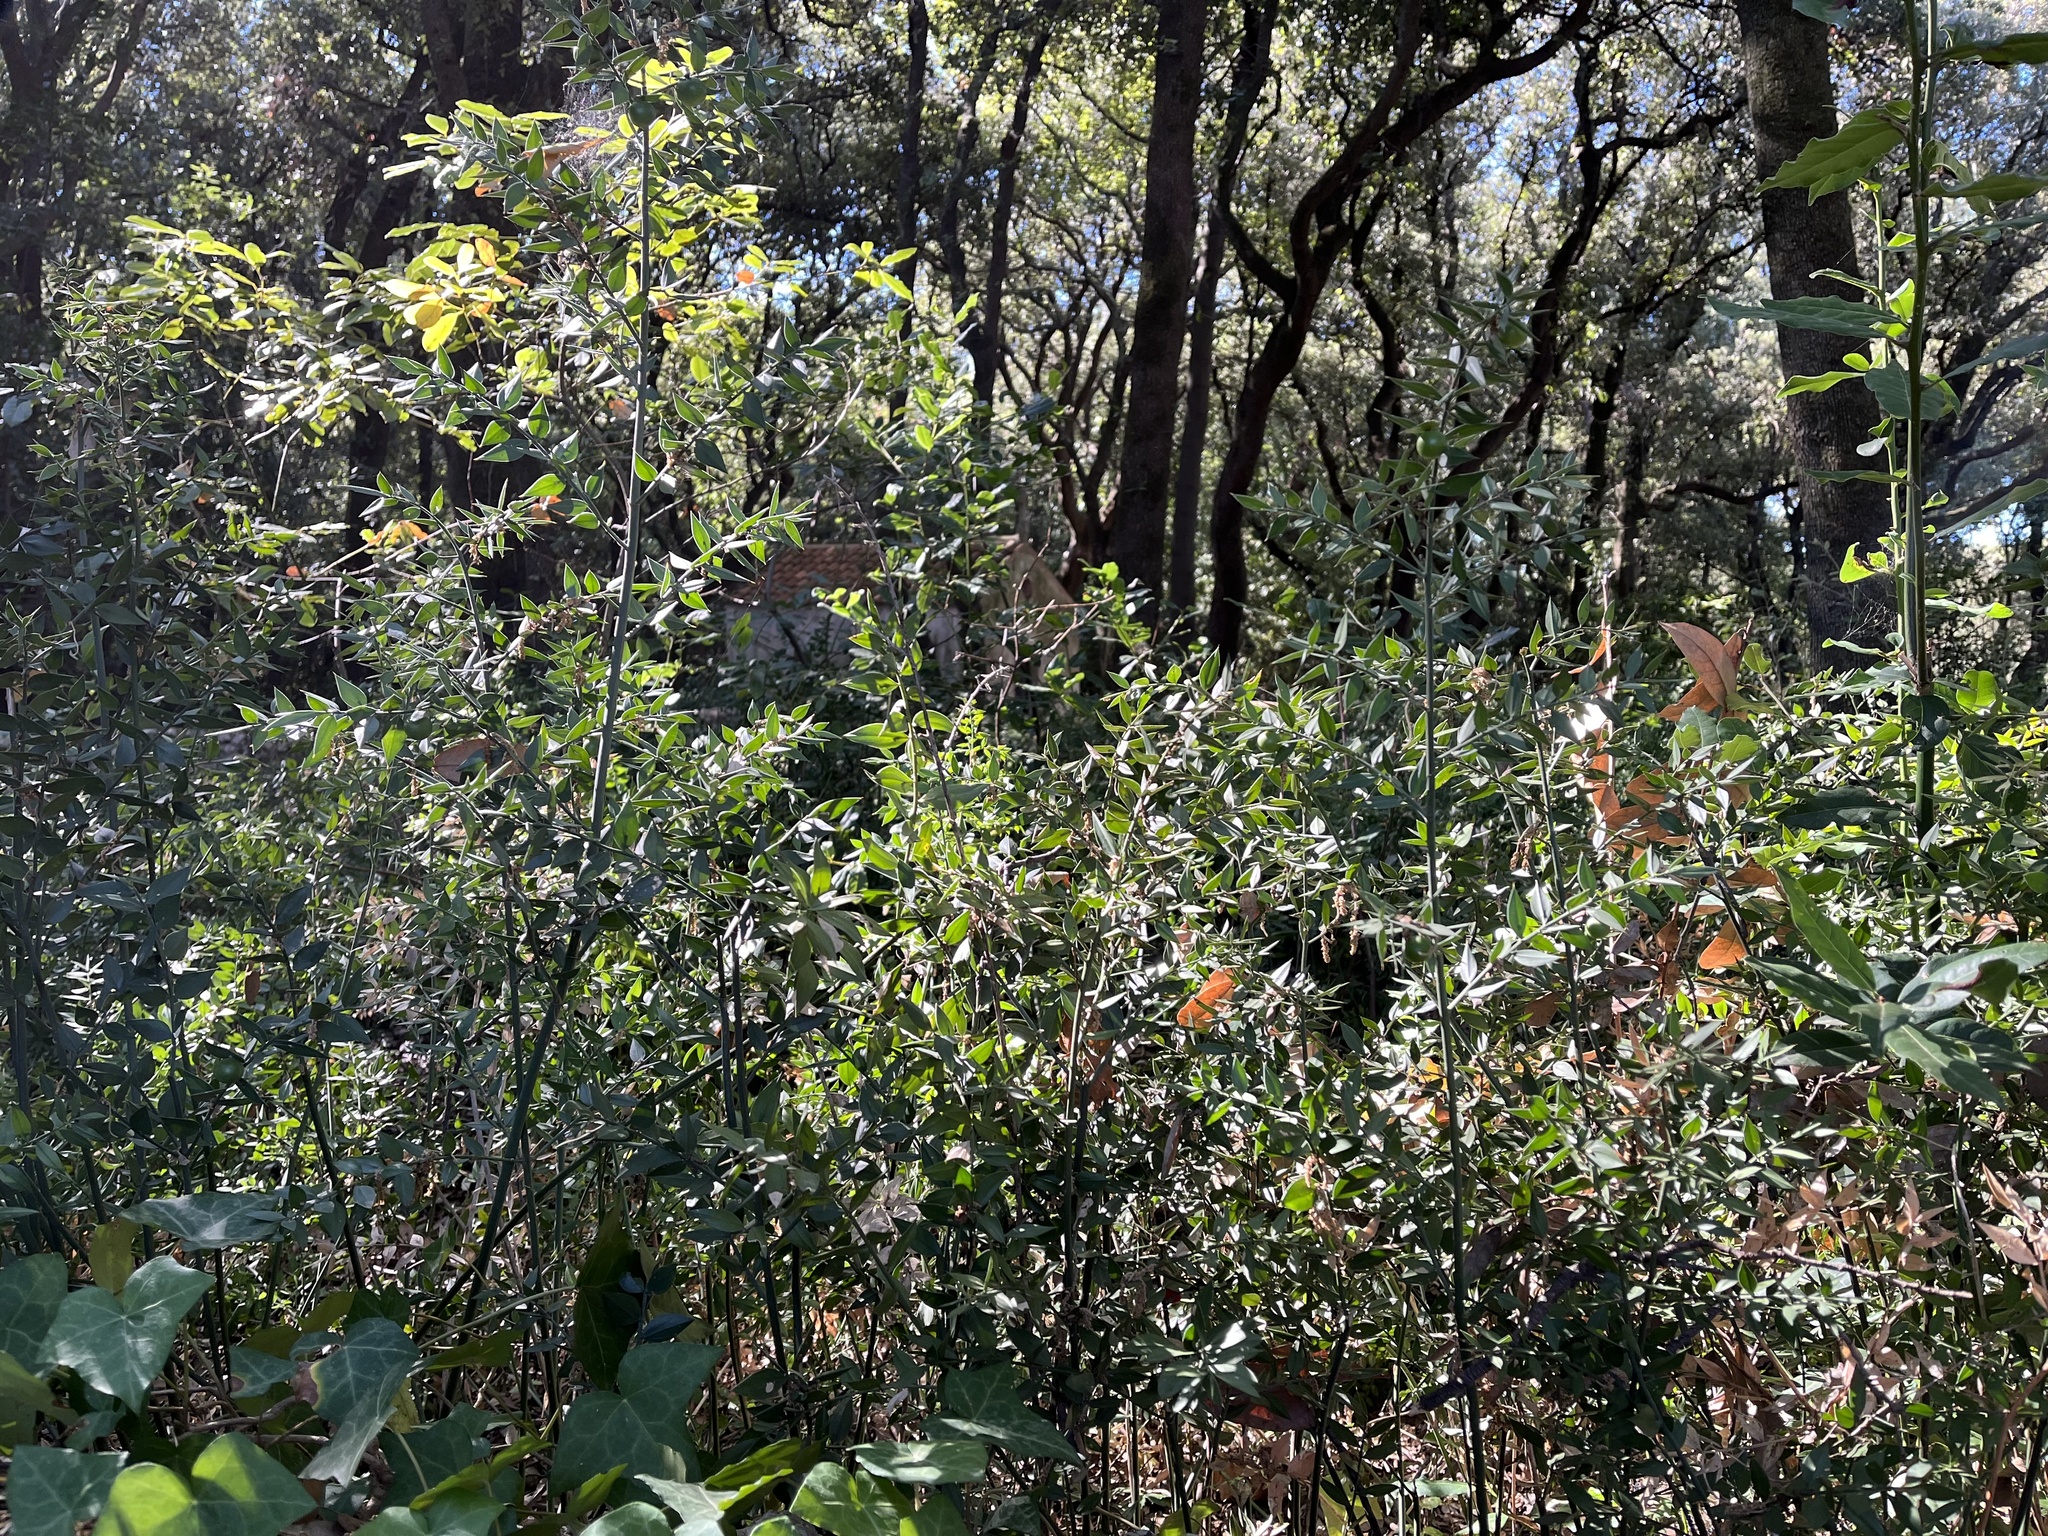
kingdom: Plantae
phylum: Tracheophyta
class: Liliopsida
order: Asparagales
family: Asparagaceae
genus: Ruscus
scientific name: Ruscus aculeatus
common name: Butcher's-broom
